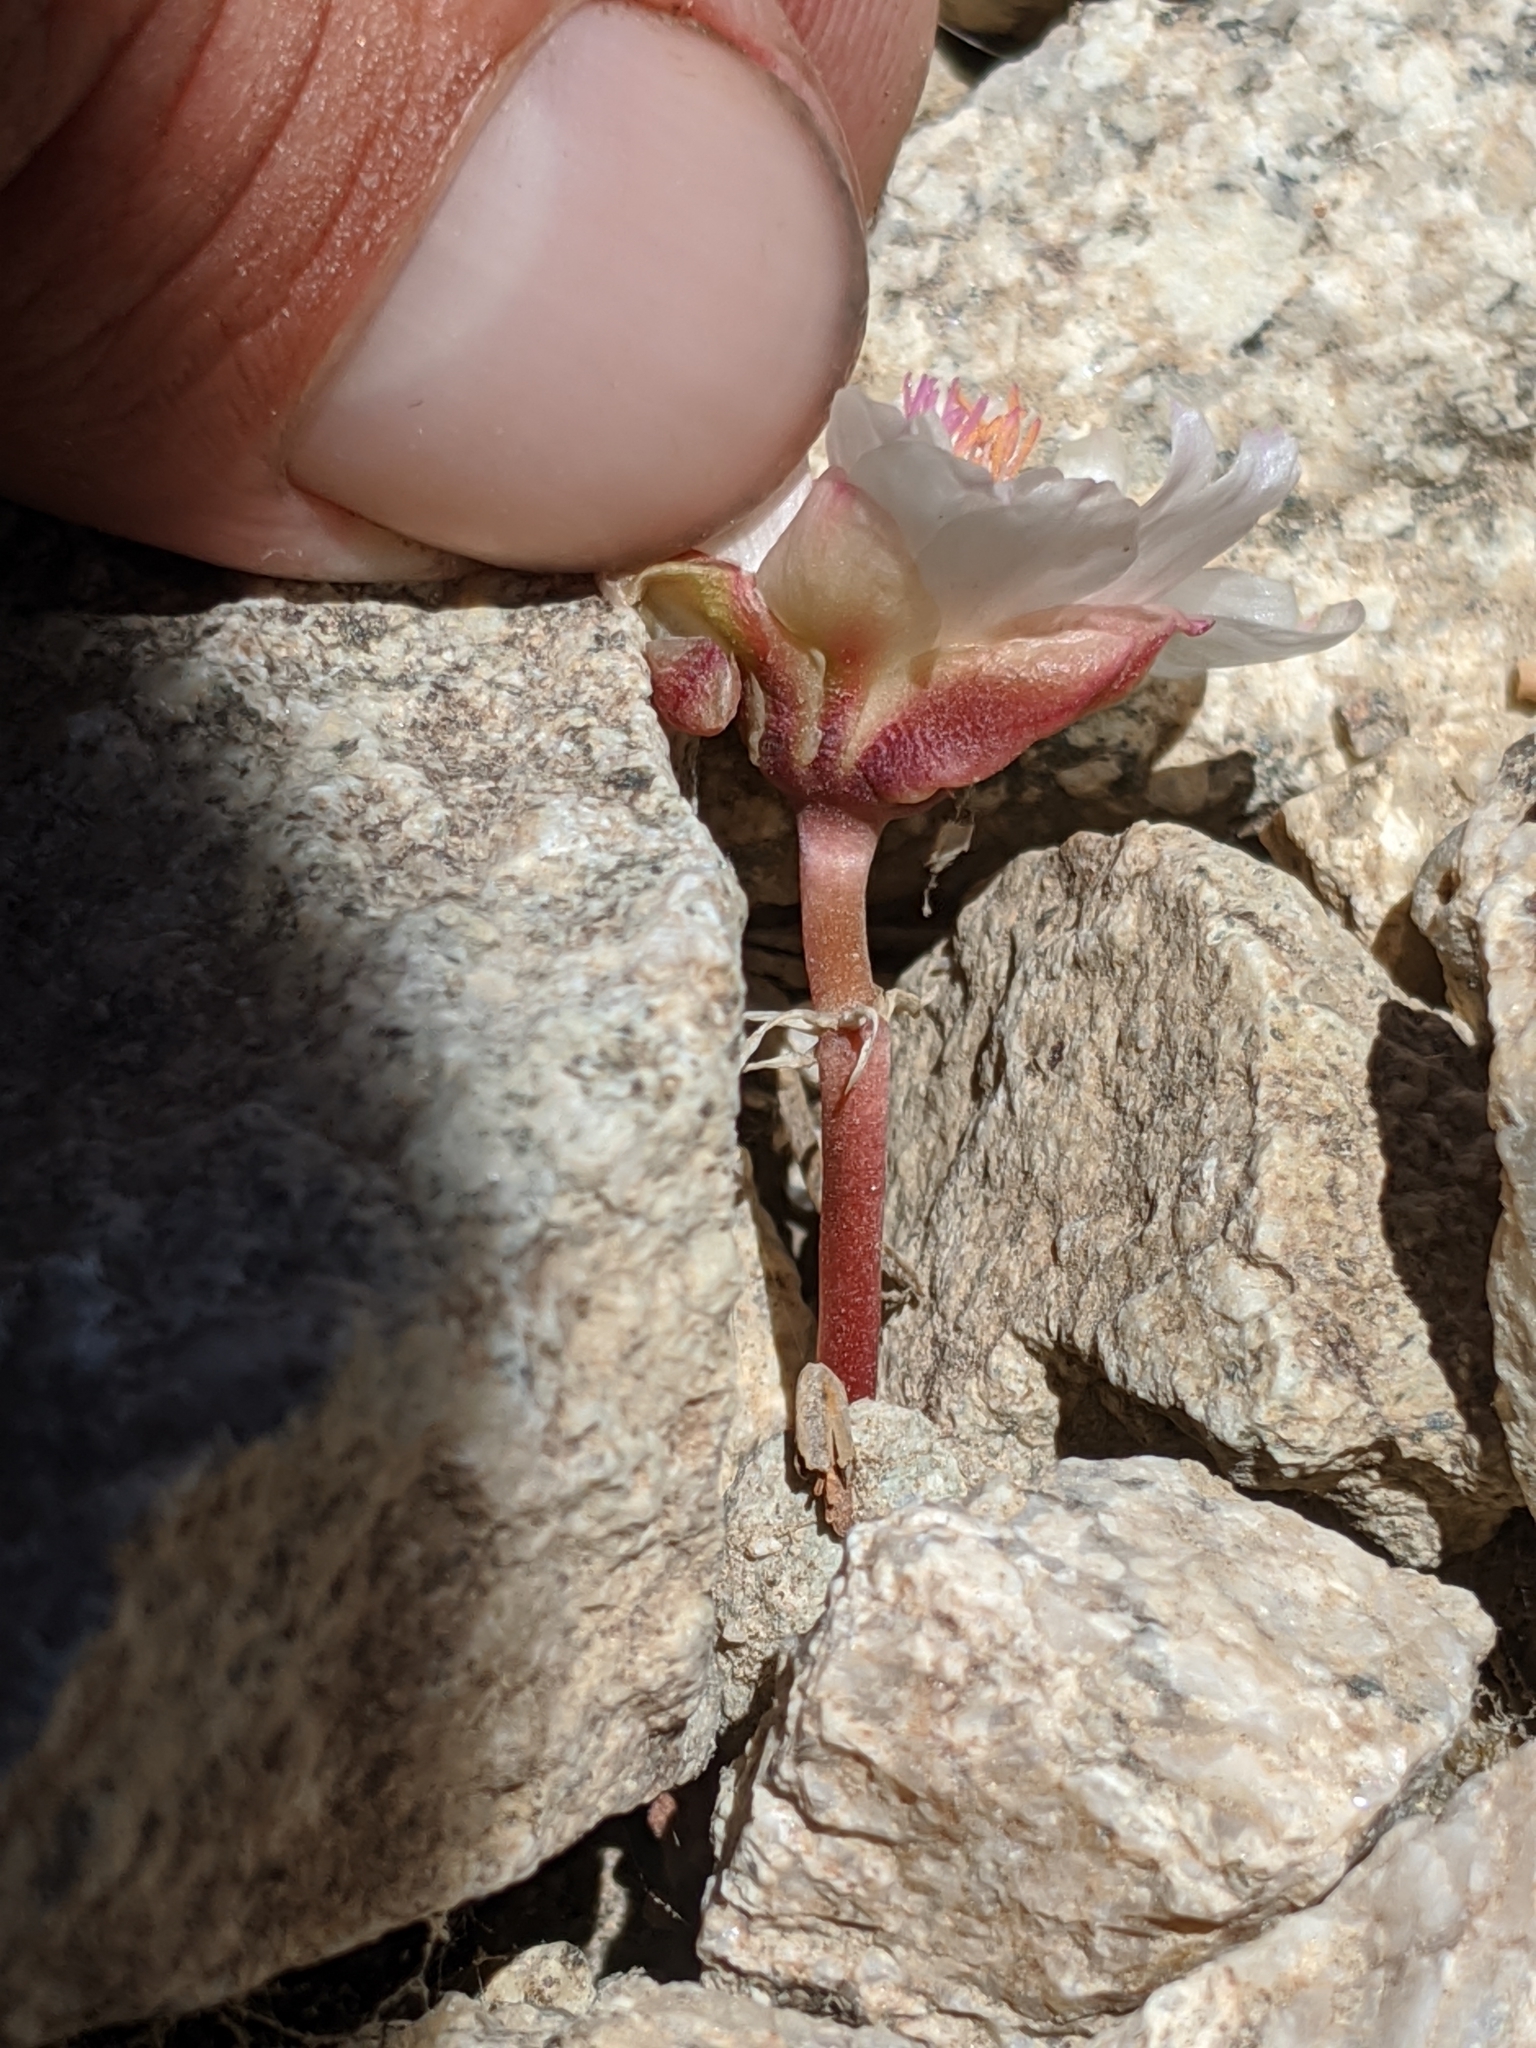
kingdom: Plantae
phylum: Tracheophyta
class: Magnoliopsida
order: Caryophyllales
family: Montiaceae
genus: Lewisia
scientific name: Lewisia rediviva
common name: Bitter-root
